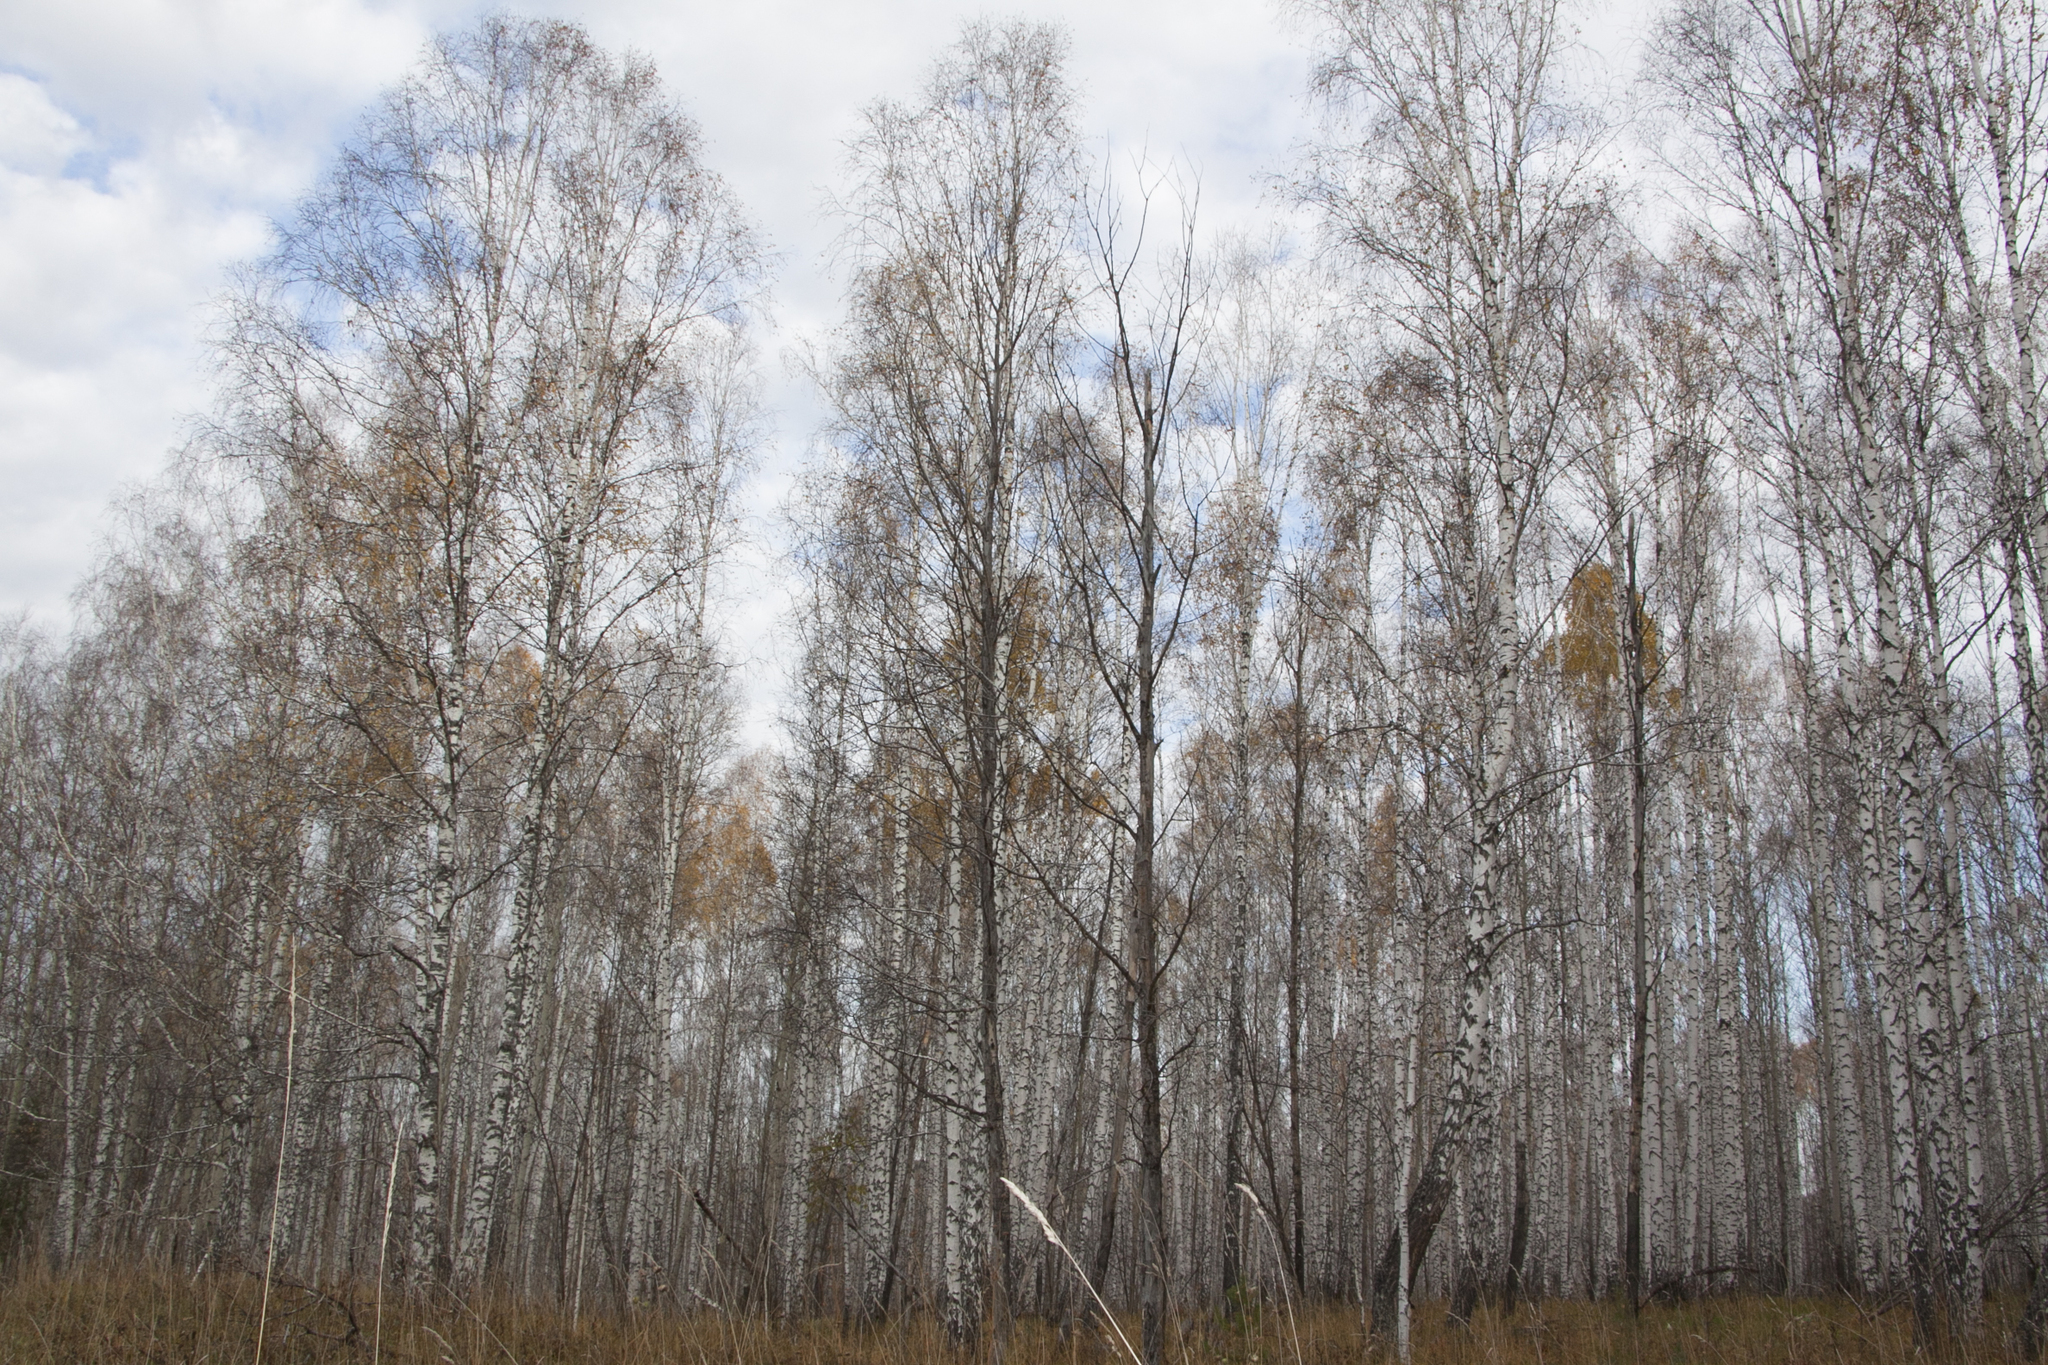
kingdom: Plantae
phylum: Tracheophyta
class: Magnoliopsida
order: Fagales
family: Betulaceae
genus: Betula
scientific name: Betula pendula
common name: Silver birch
